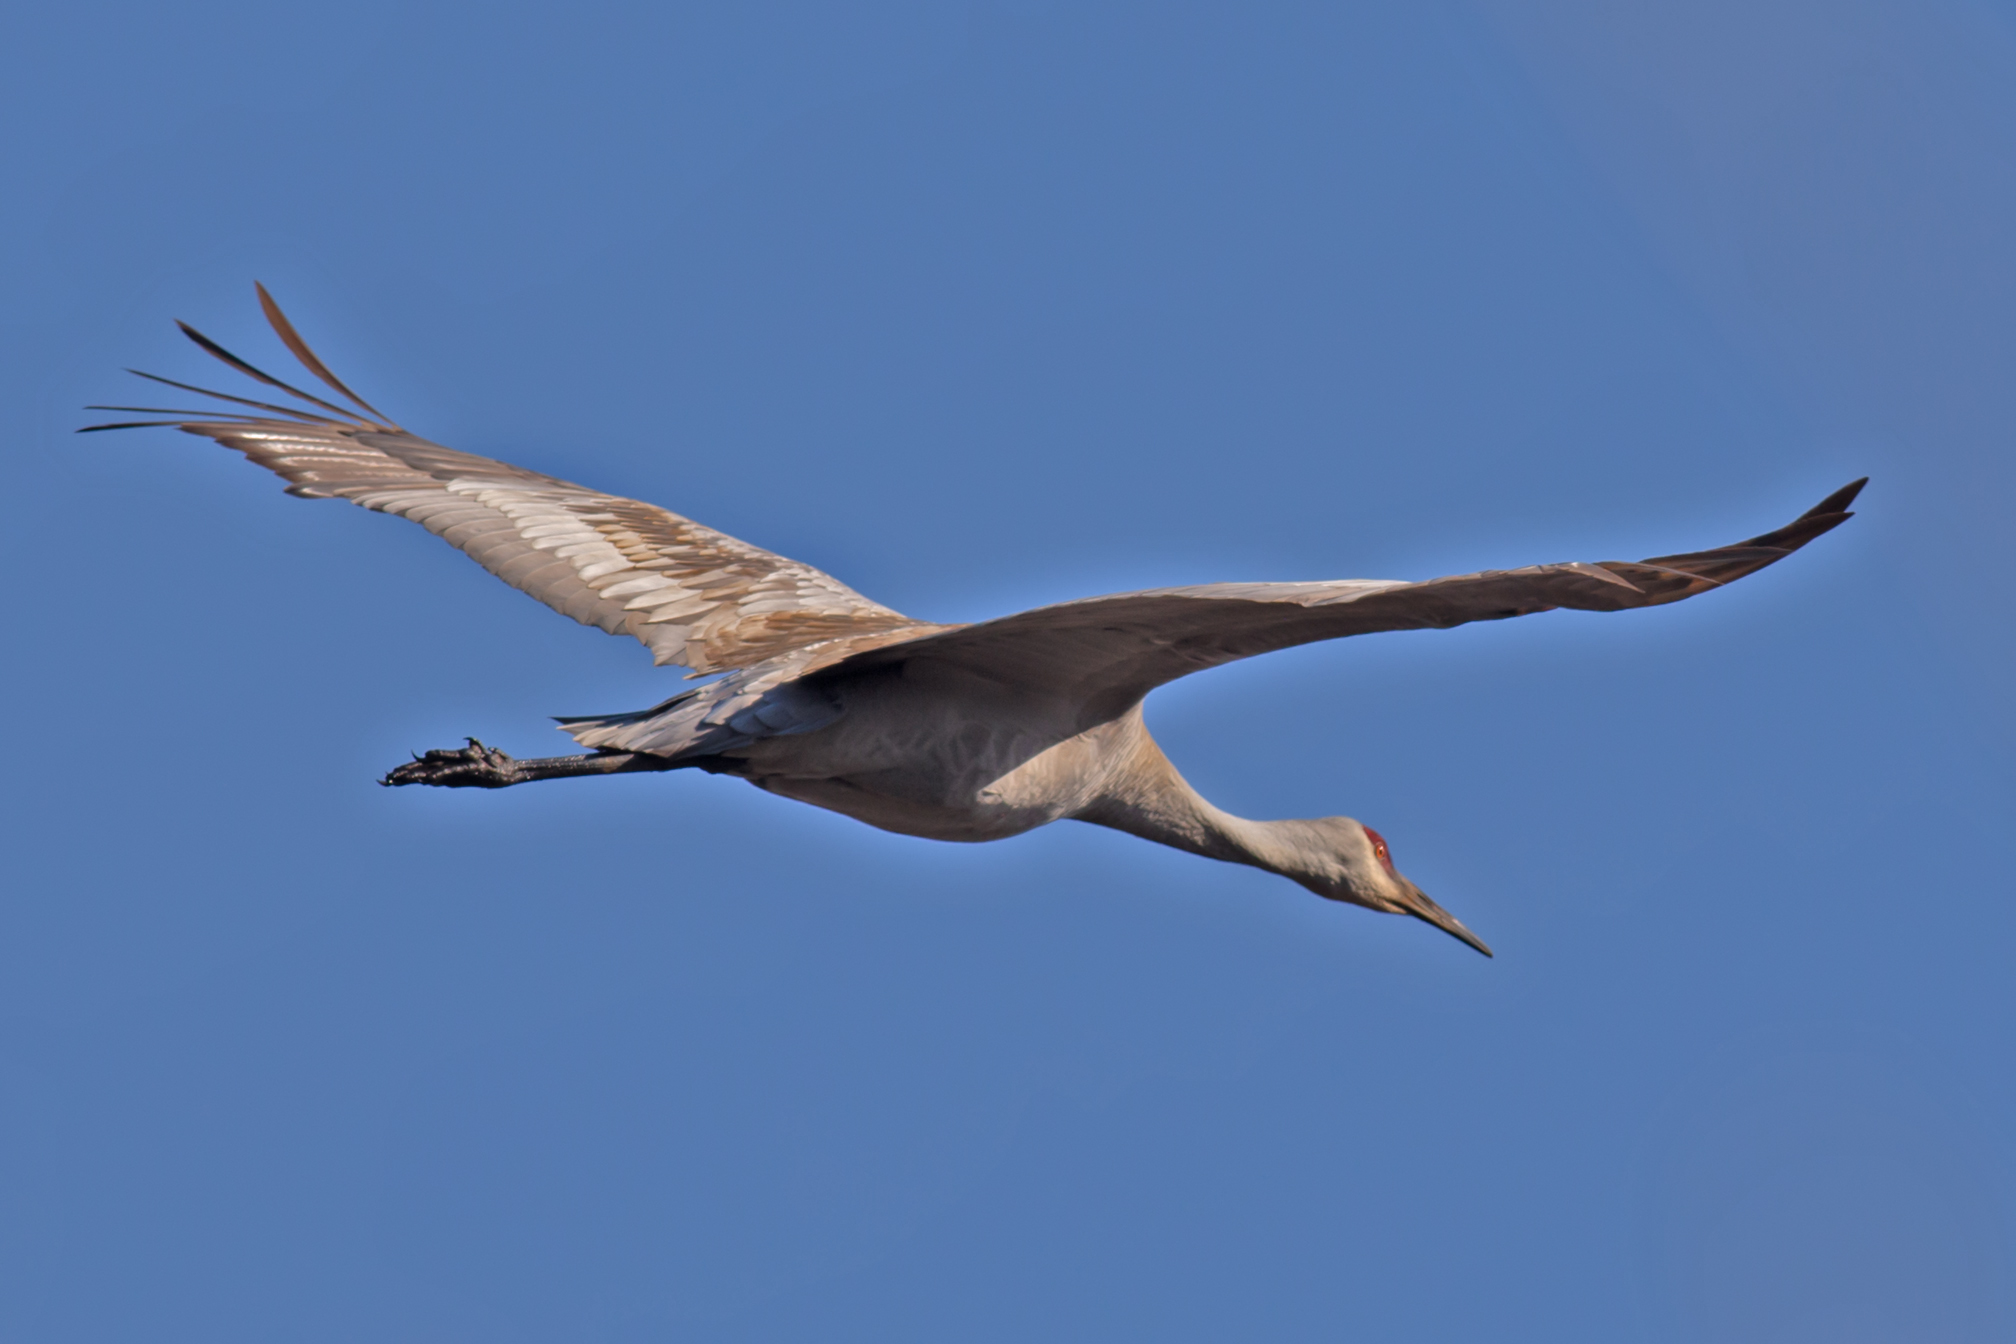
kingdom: Animalia
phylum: Chordata
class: Aves
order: Gruiformes
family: Gruidae
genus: Grus
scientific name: Grus canadensis
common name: Sandhill crane
